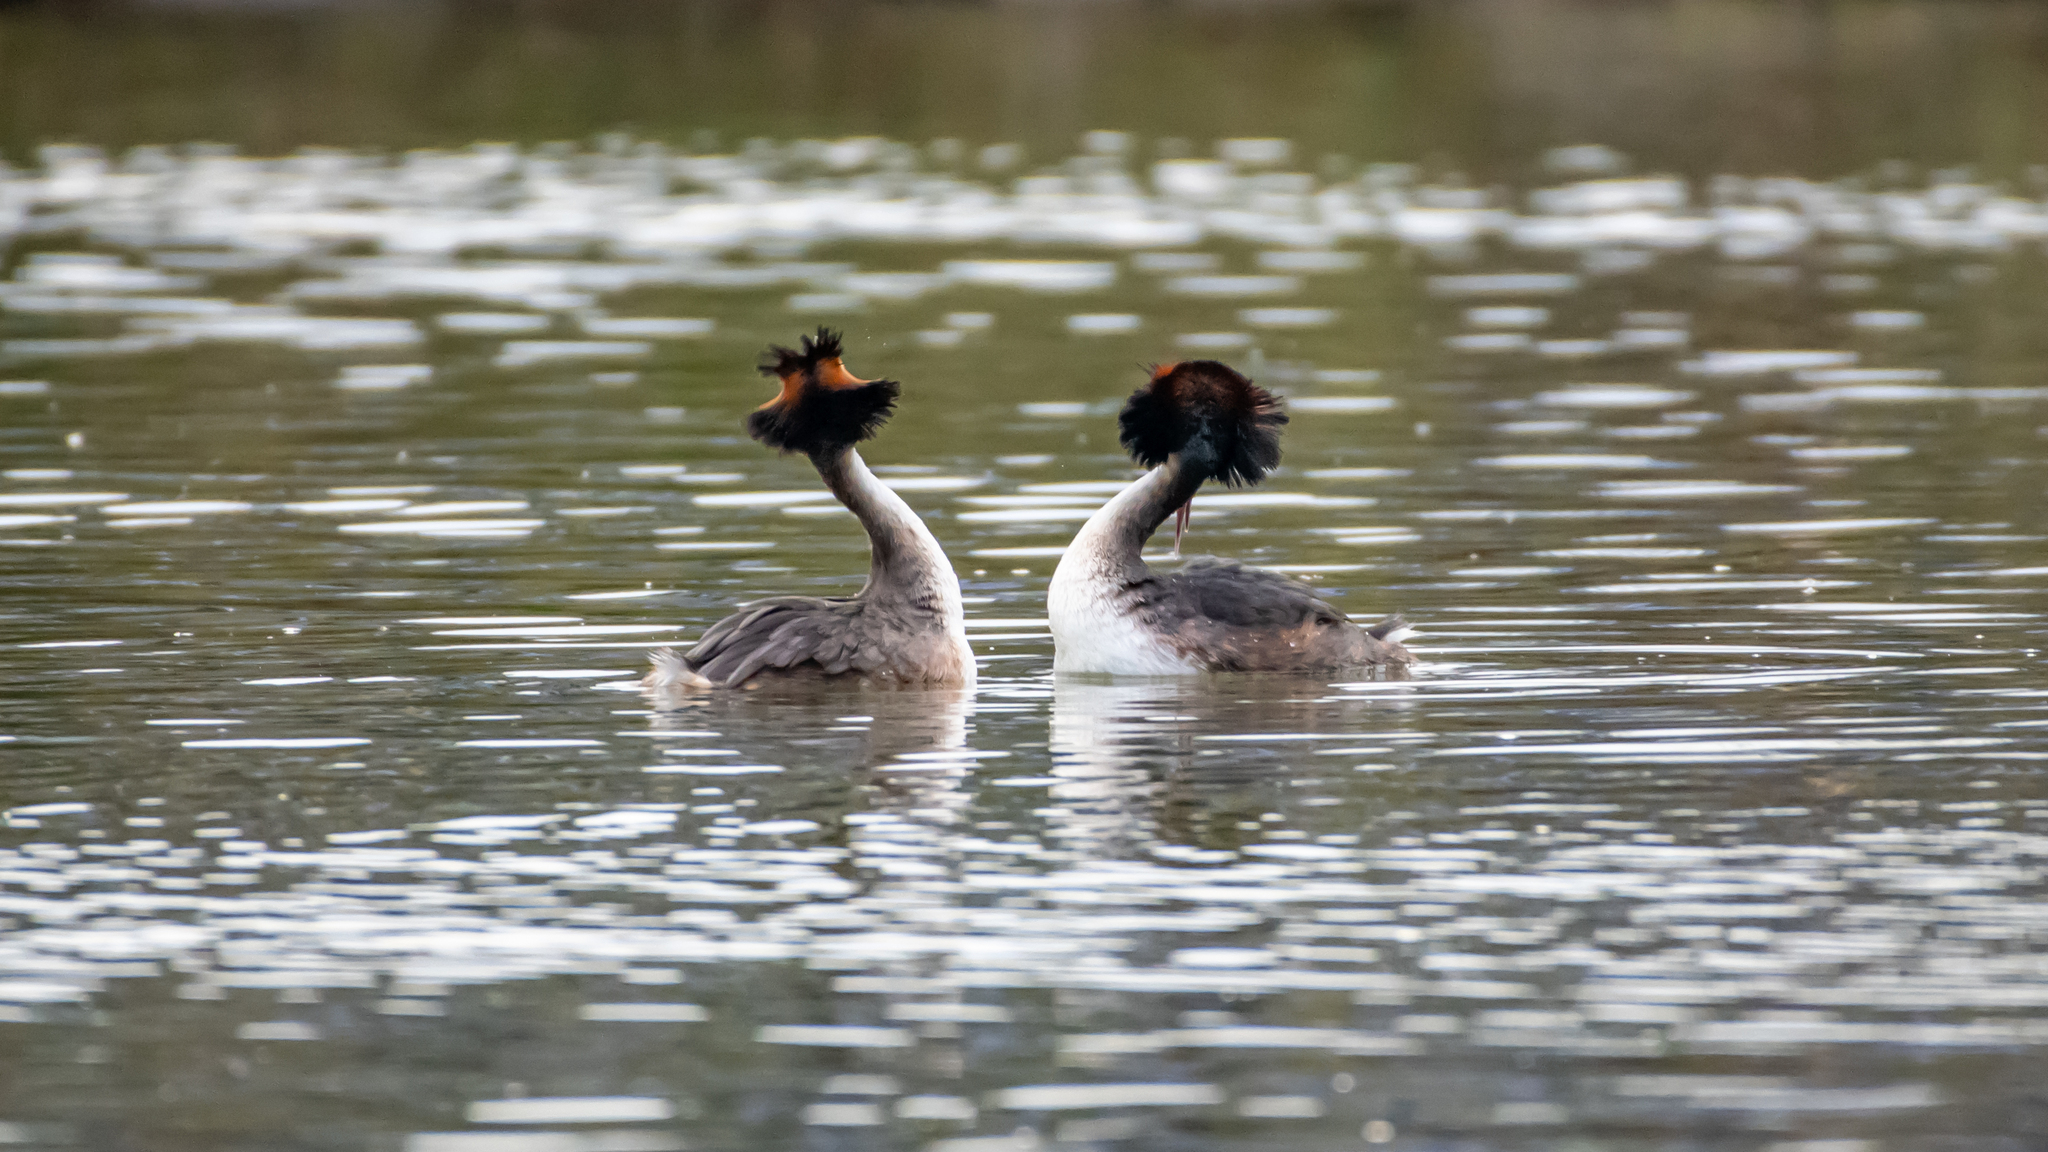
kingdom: Animalia
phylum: Chordata
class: Aves
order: Podicipediformes
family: Podicipedidae
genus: Podiceps
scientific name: Podiceps cristatus
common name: Great crested grebe
